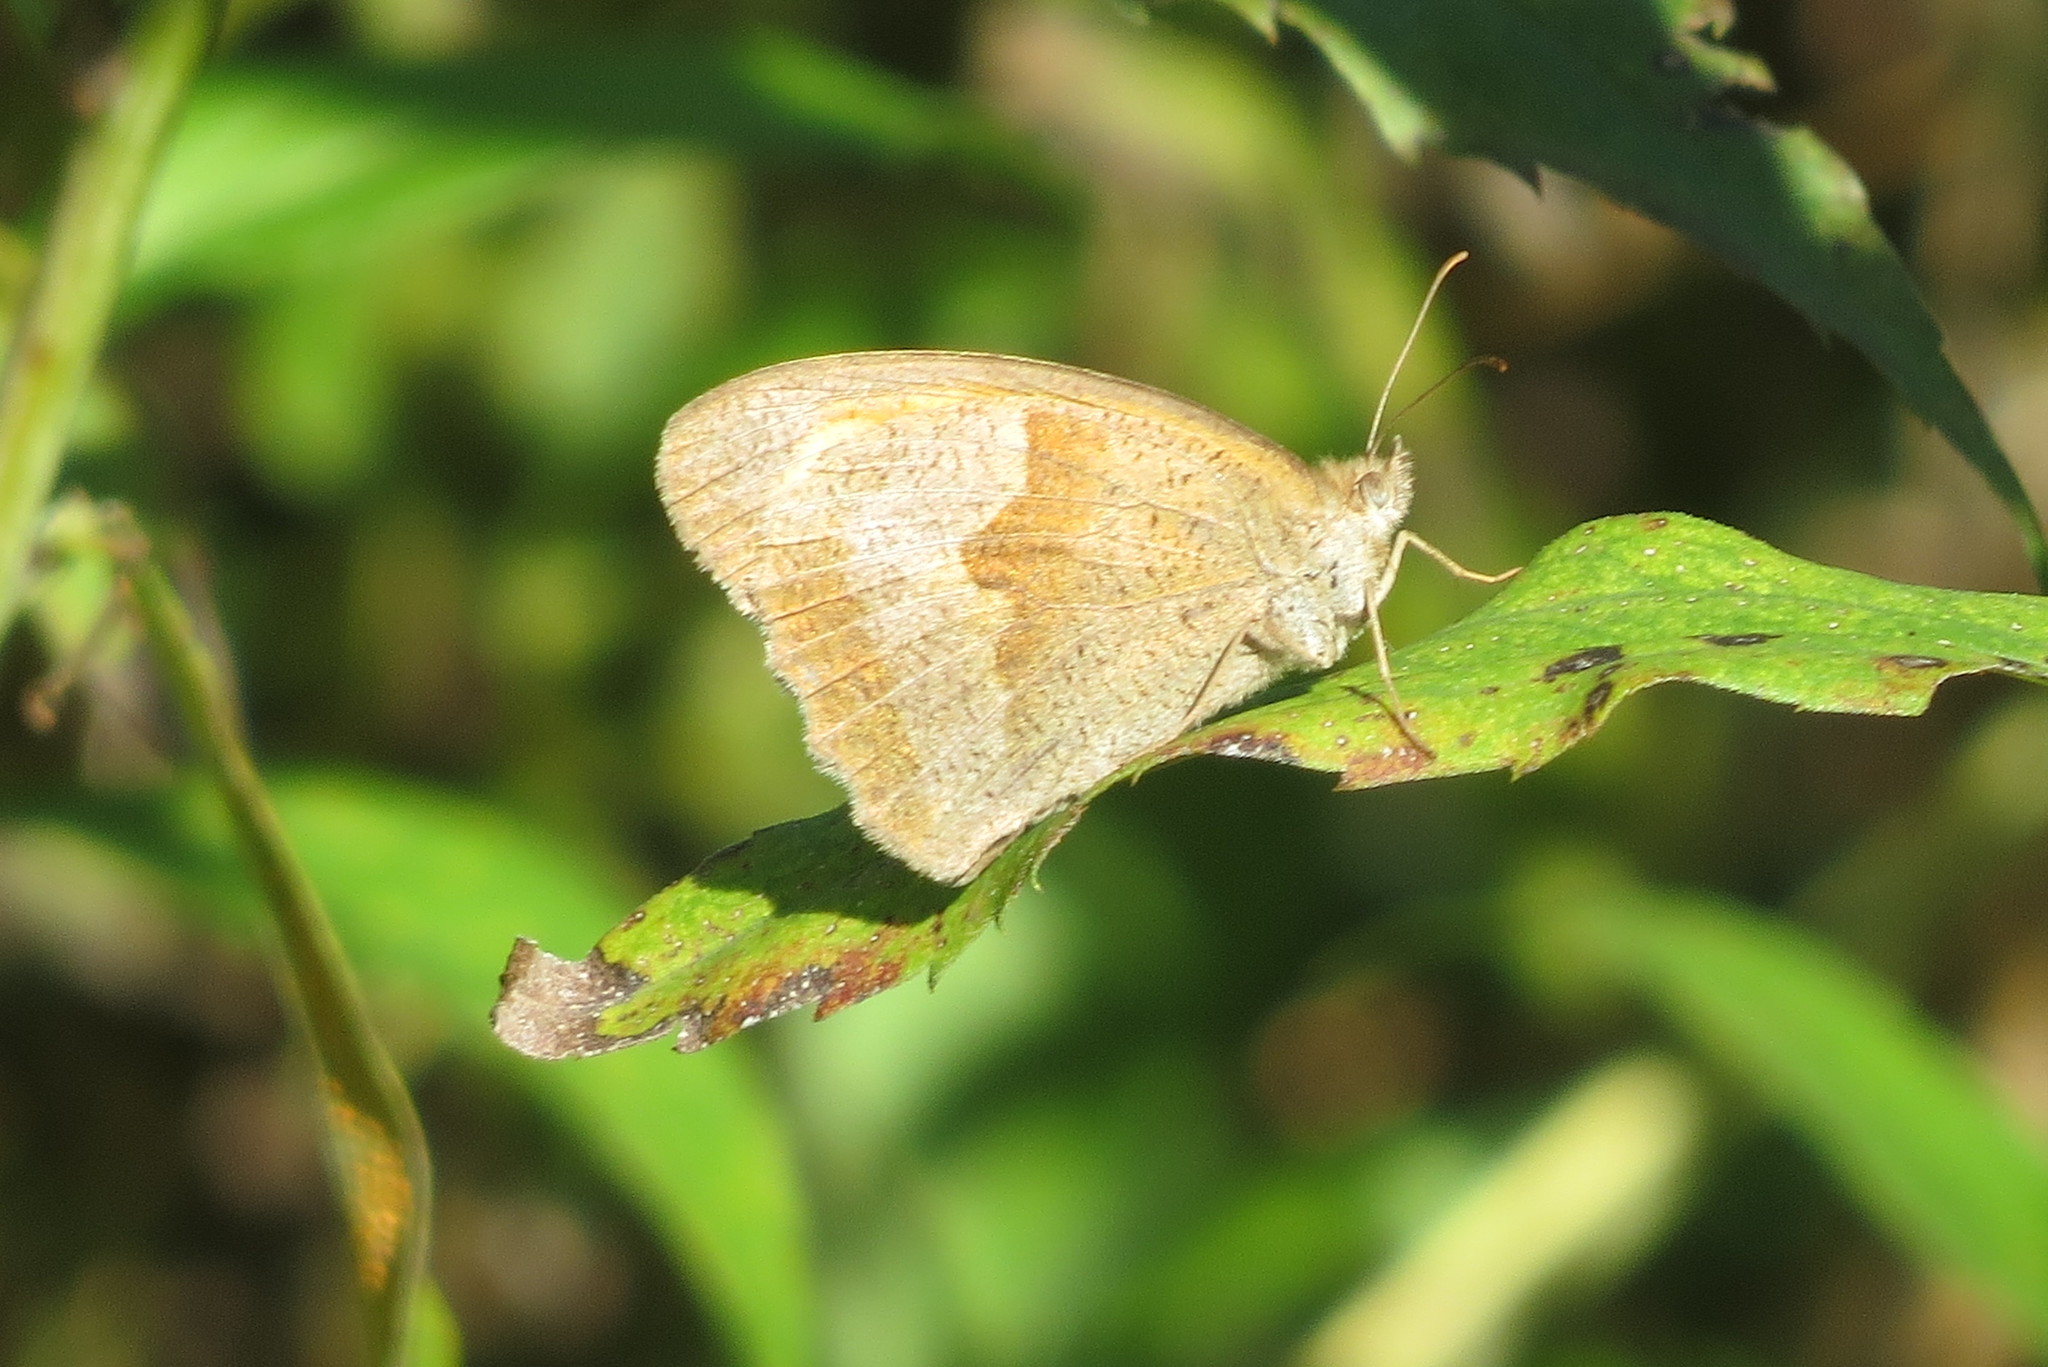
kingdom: Animalia
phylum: Arthropoda
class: Insecta
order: Lepidoptera
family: Nymphalidae
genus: Maniola
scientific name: Maniola jurtina
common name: Meadow brown
